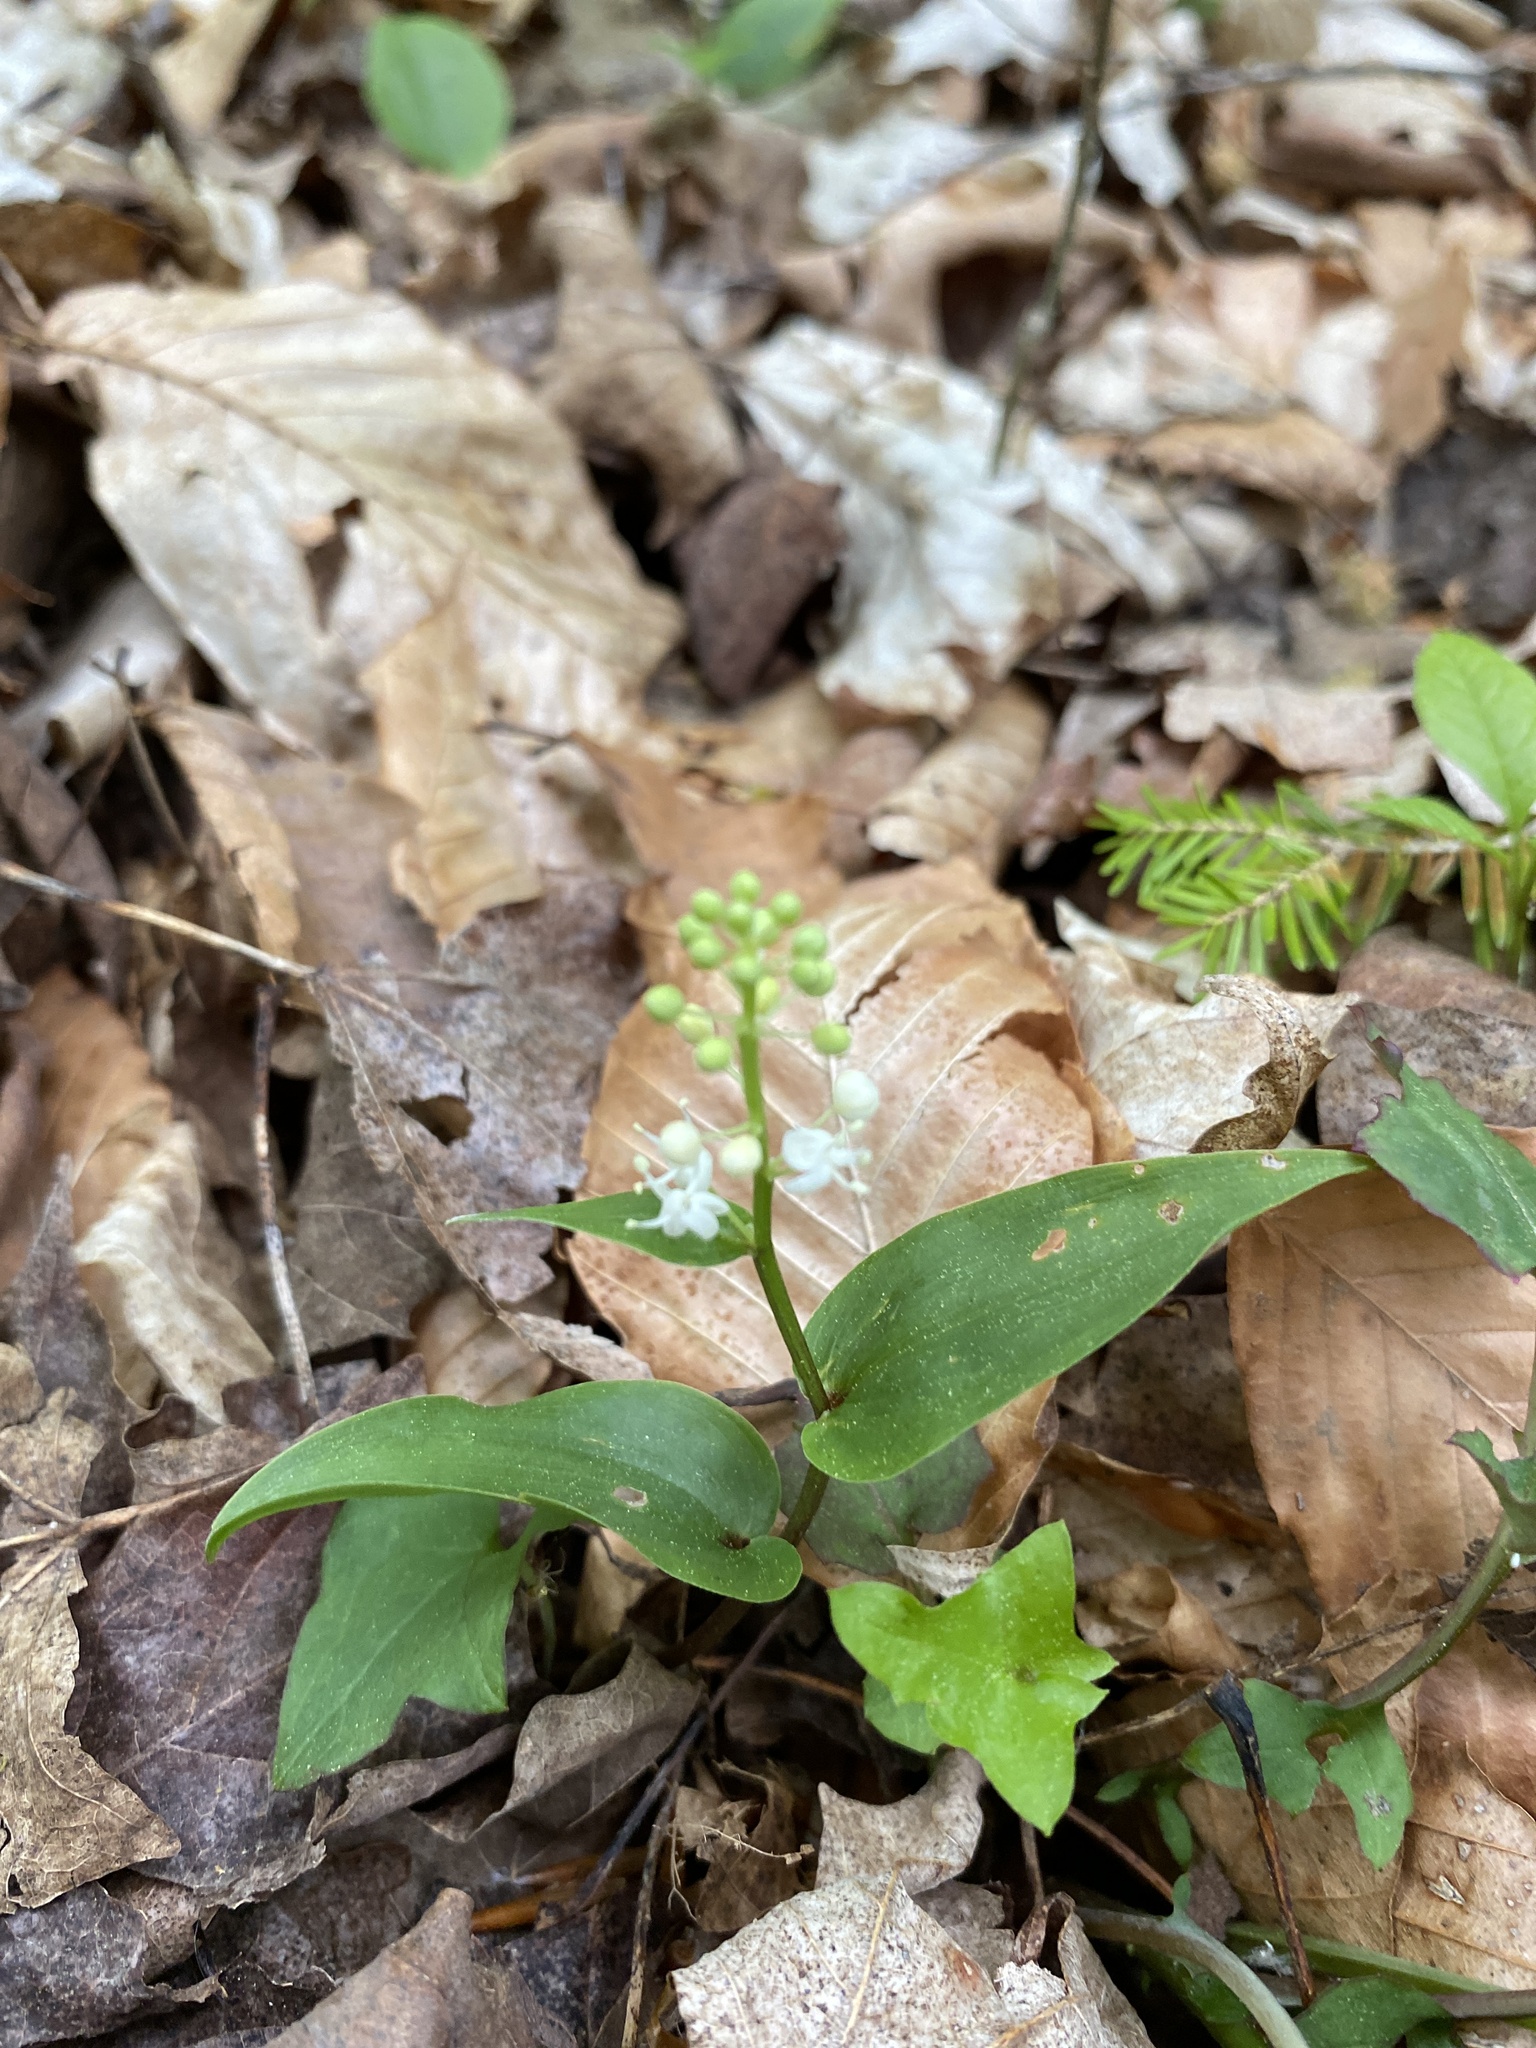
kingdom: Plantae
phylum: Tracheophyta
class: Liliopsida
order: Asparagales
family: Asparagaceae
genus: Maianthemum
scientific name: Maianthemum canadense
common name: False lily-of-the-valley
